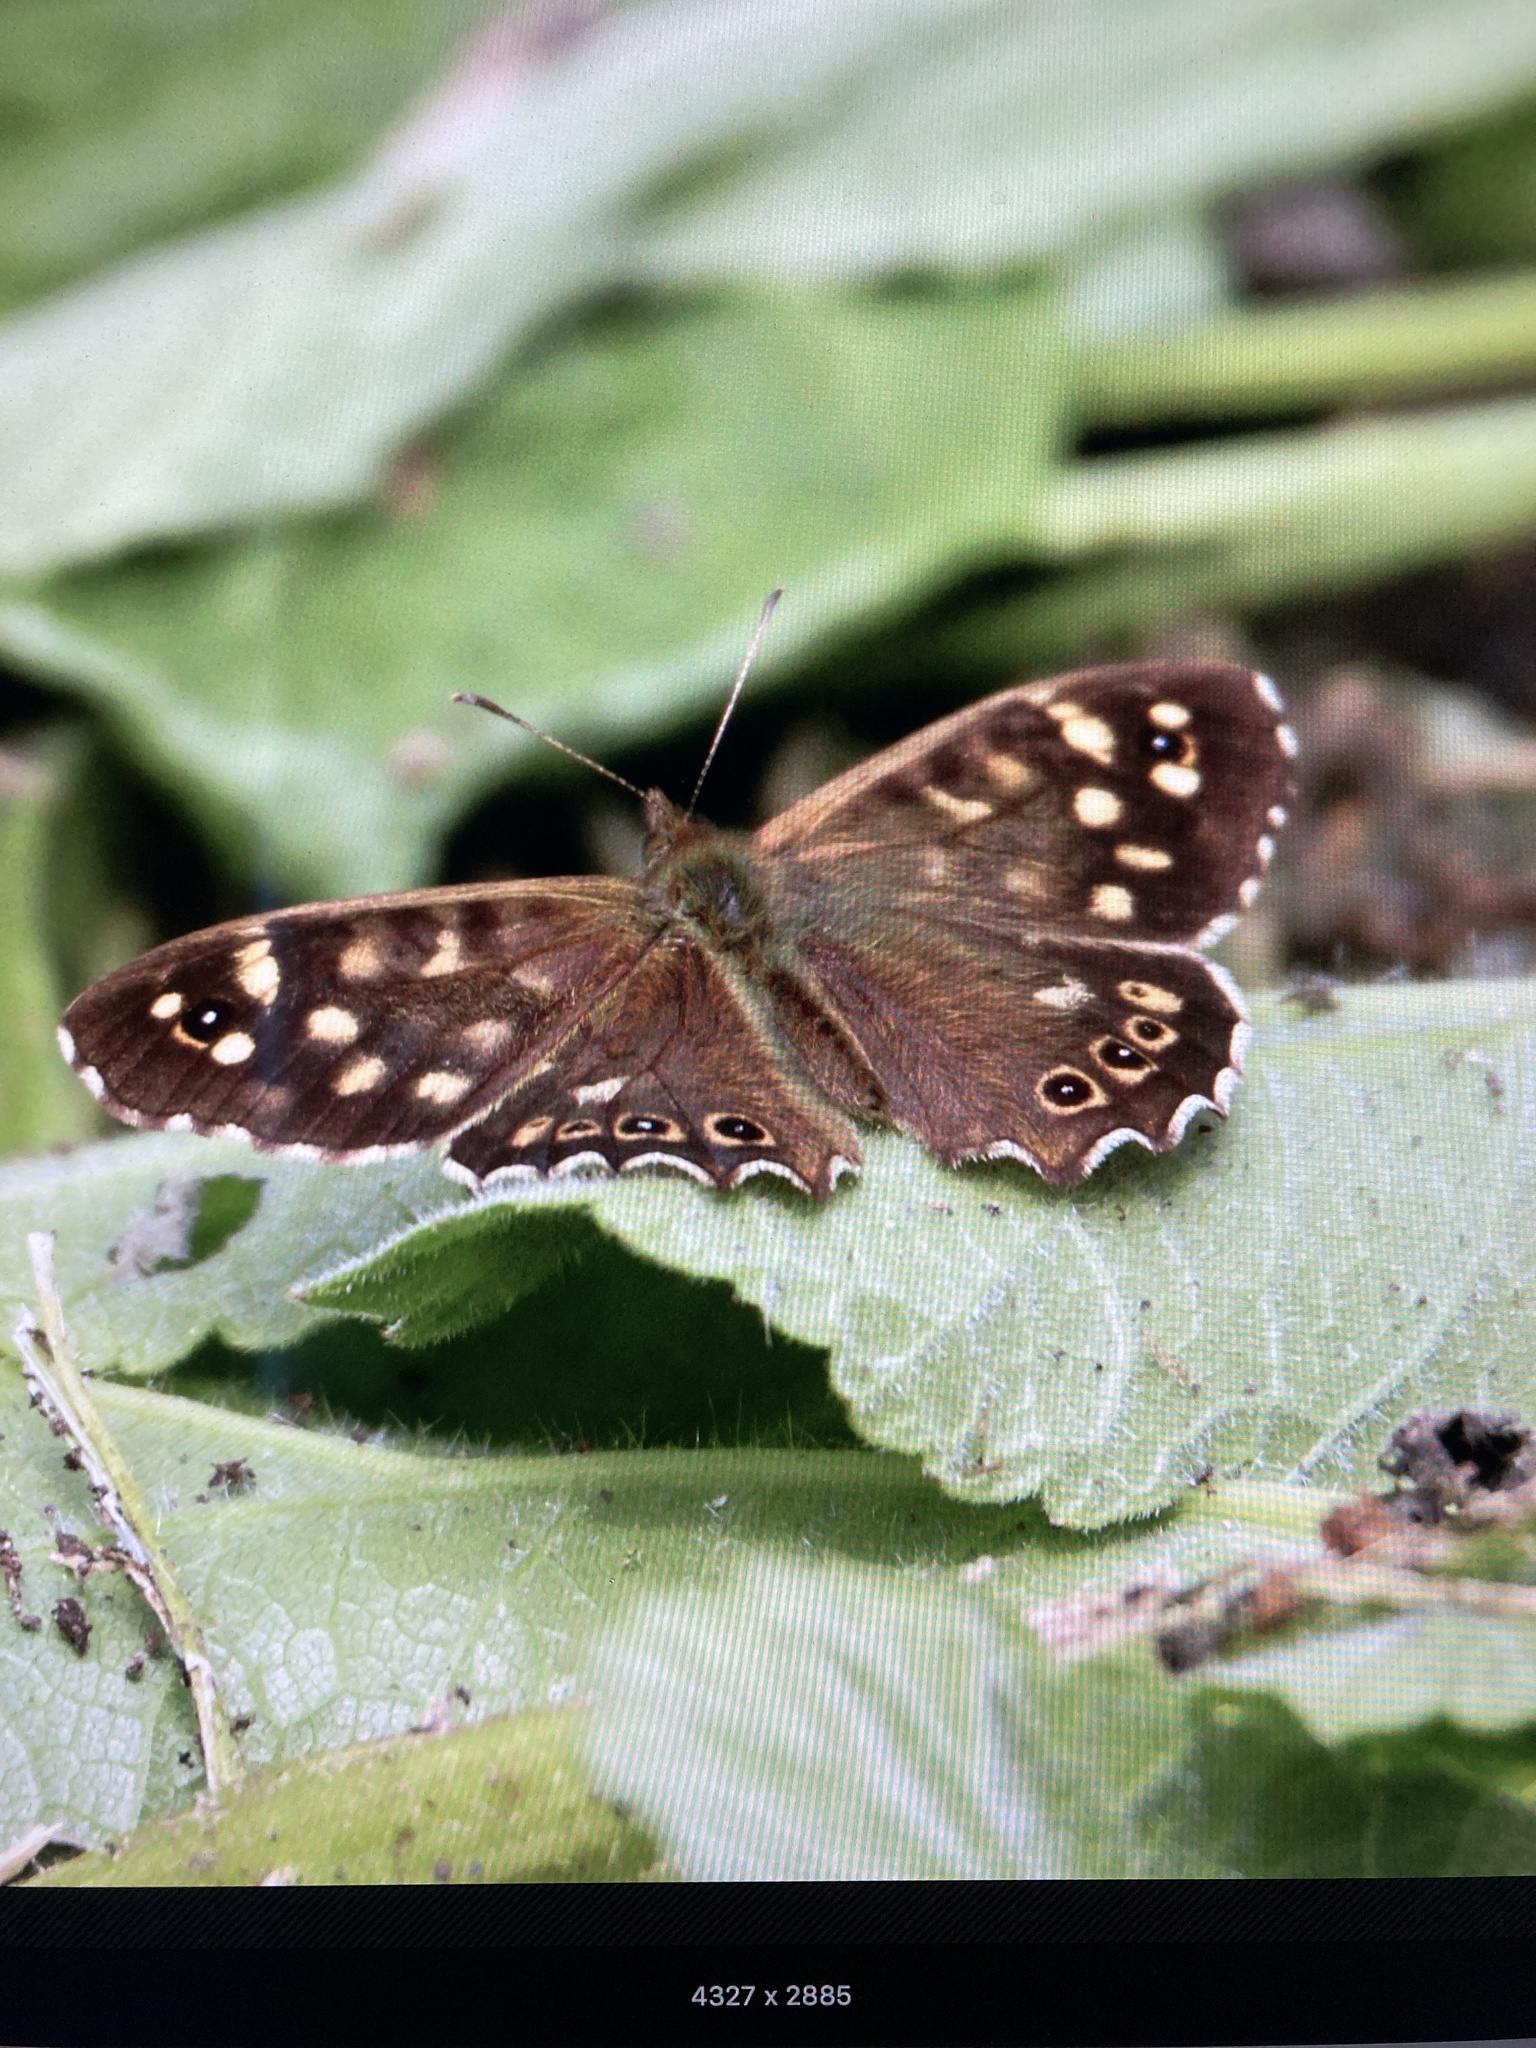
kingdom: Animalia
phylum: Arthropoda
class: Insecta
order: Lepidoptera
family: Nymphalidae
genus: Pararge
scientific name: Pararge aegeria
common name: Speckled wood
